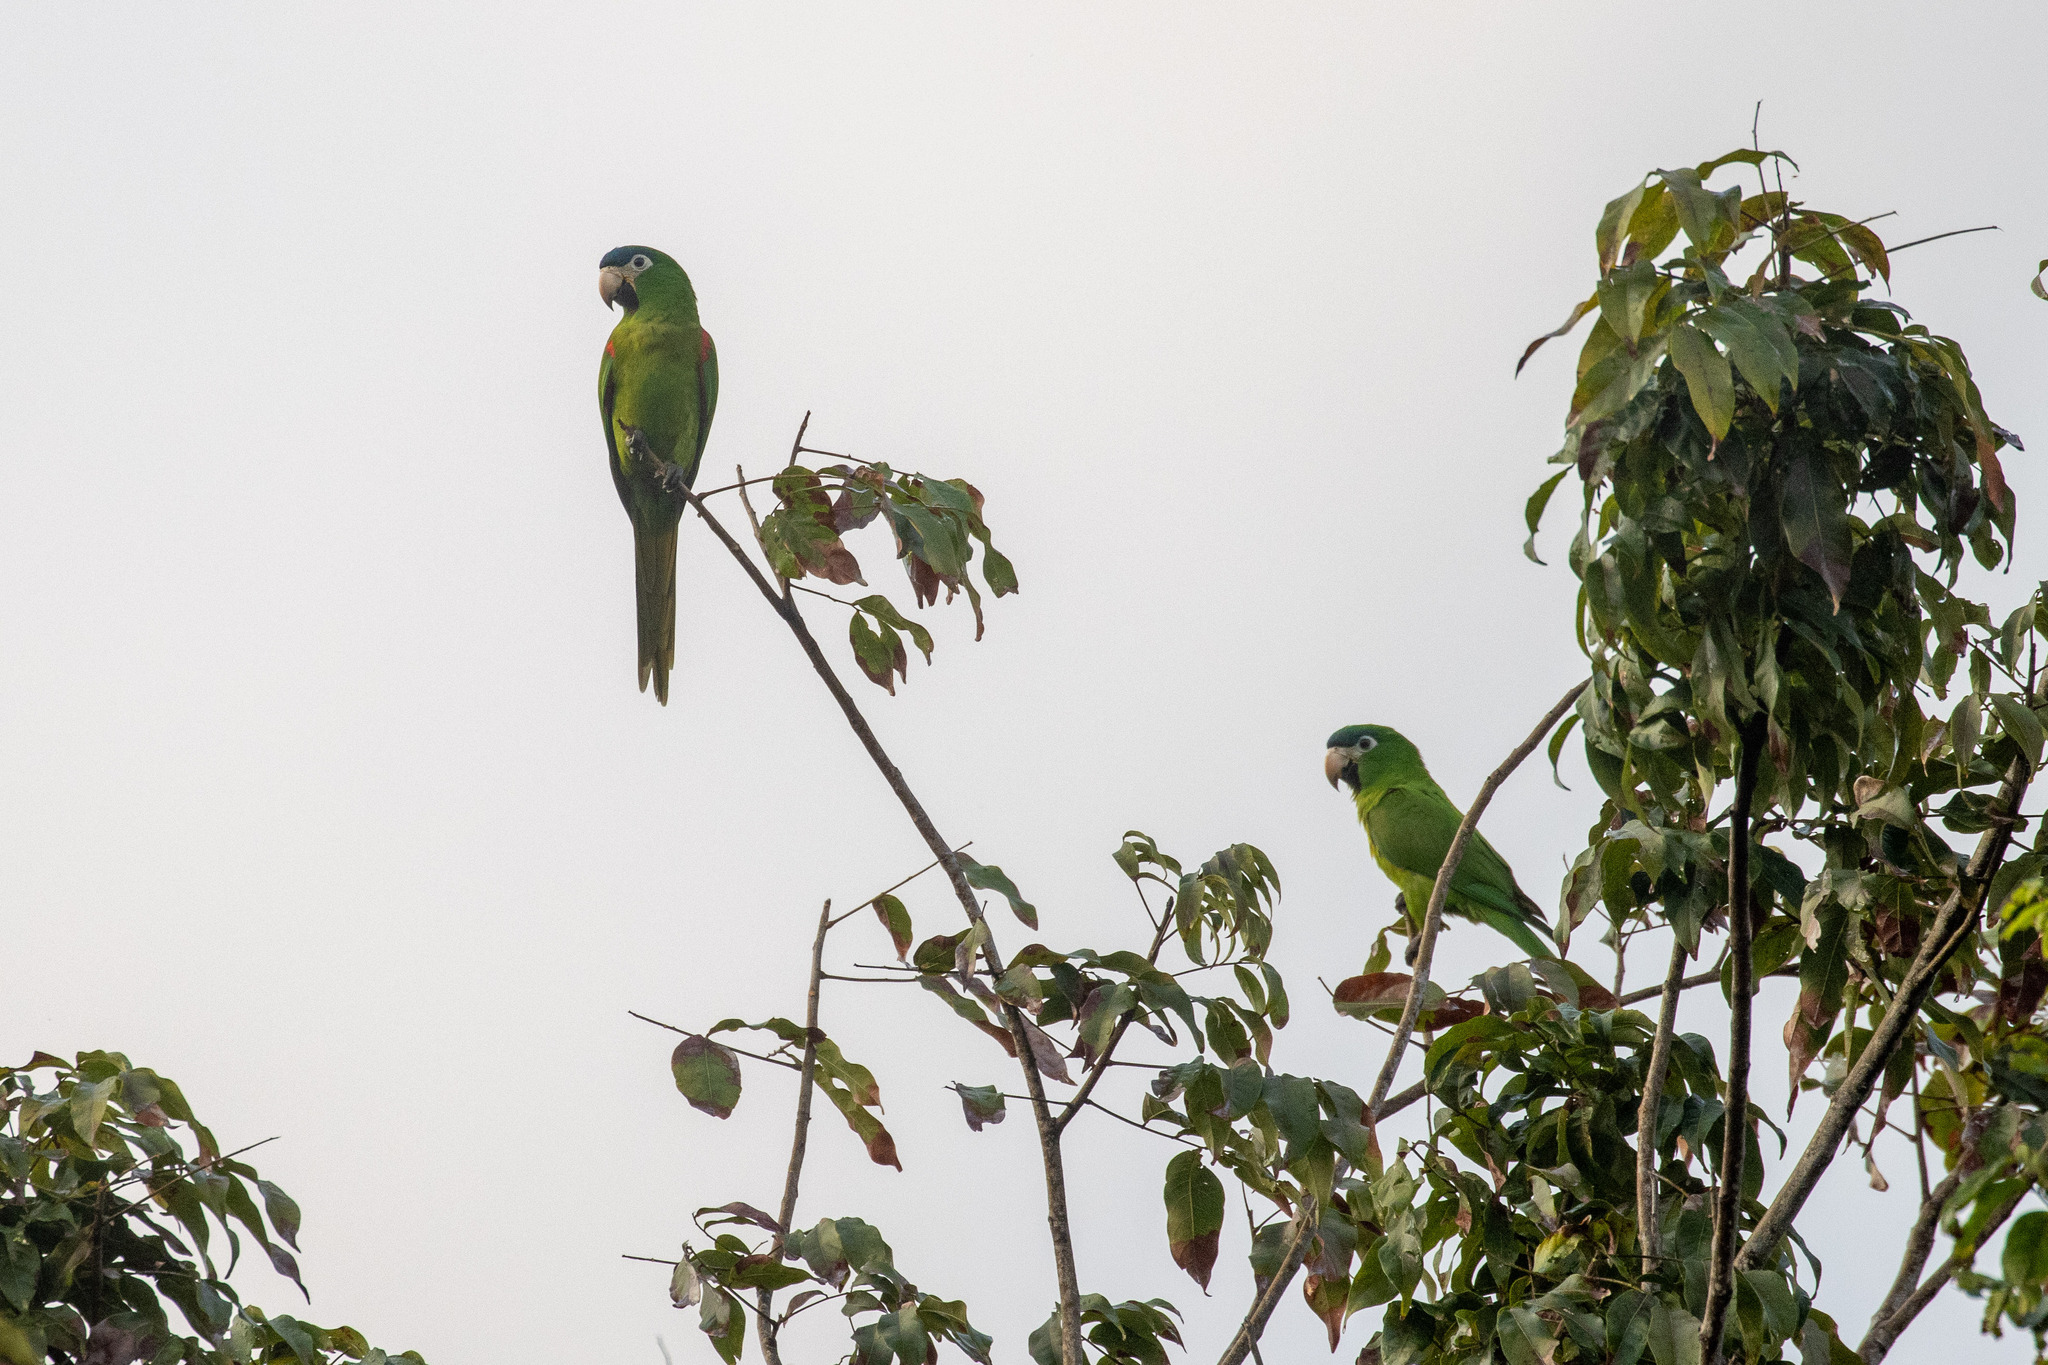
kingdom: Animalia
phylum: Chordata
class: Aves
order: Psittaciformes
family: Psittacidae
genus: Diopsittaca
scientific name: Diopsittaca nobilis
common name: Red-shouldered macaw
